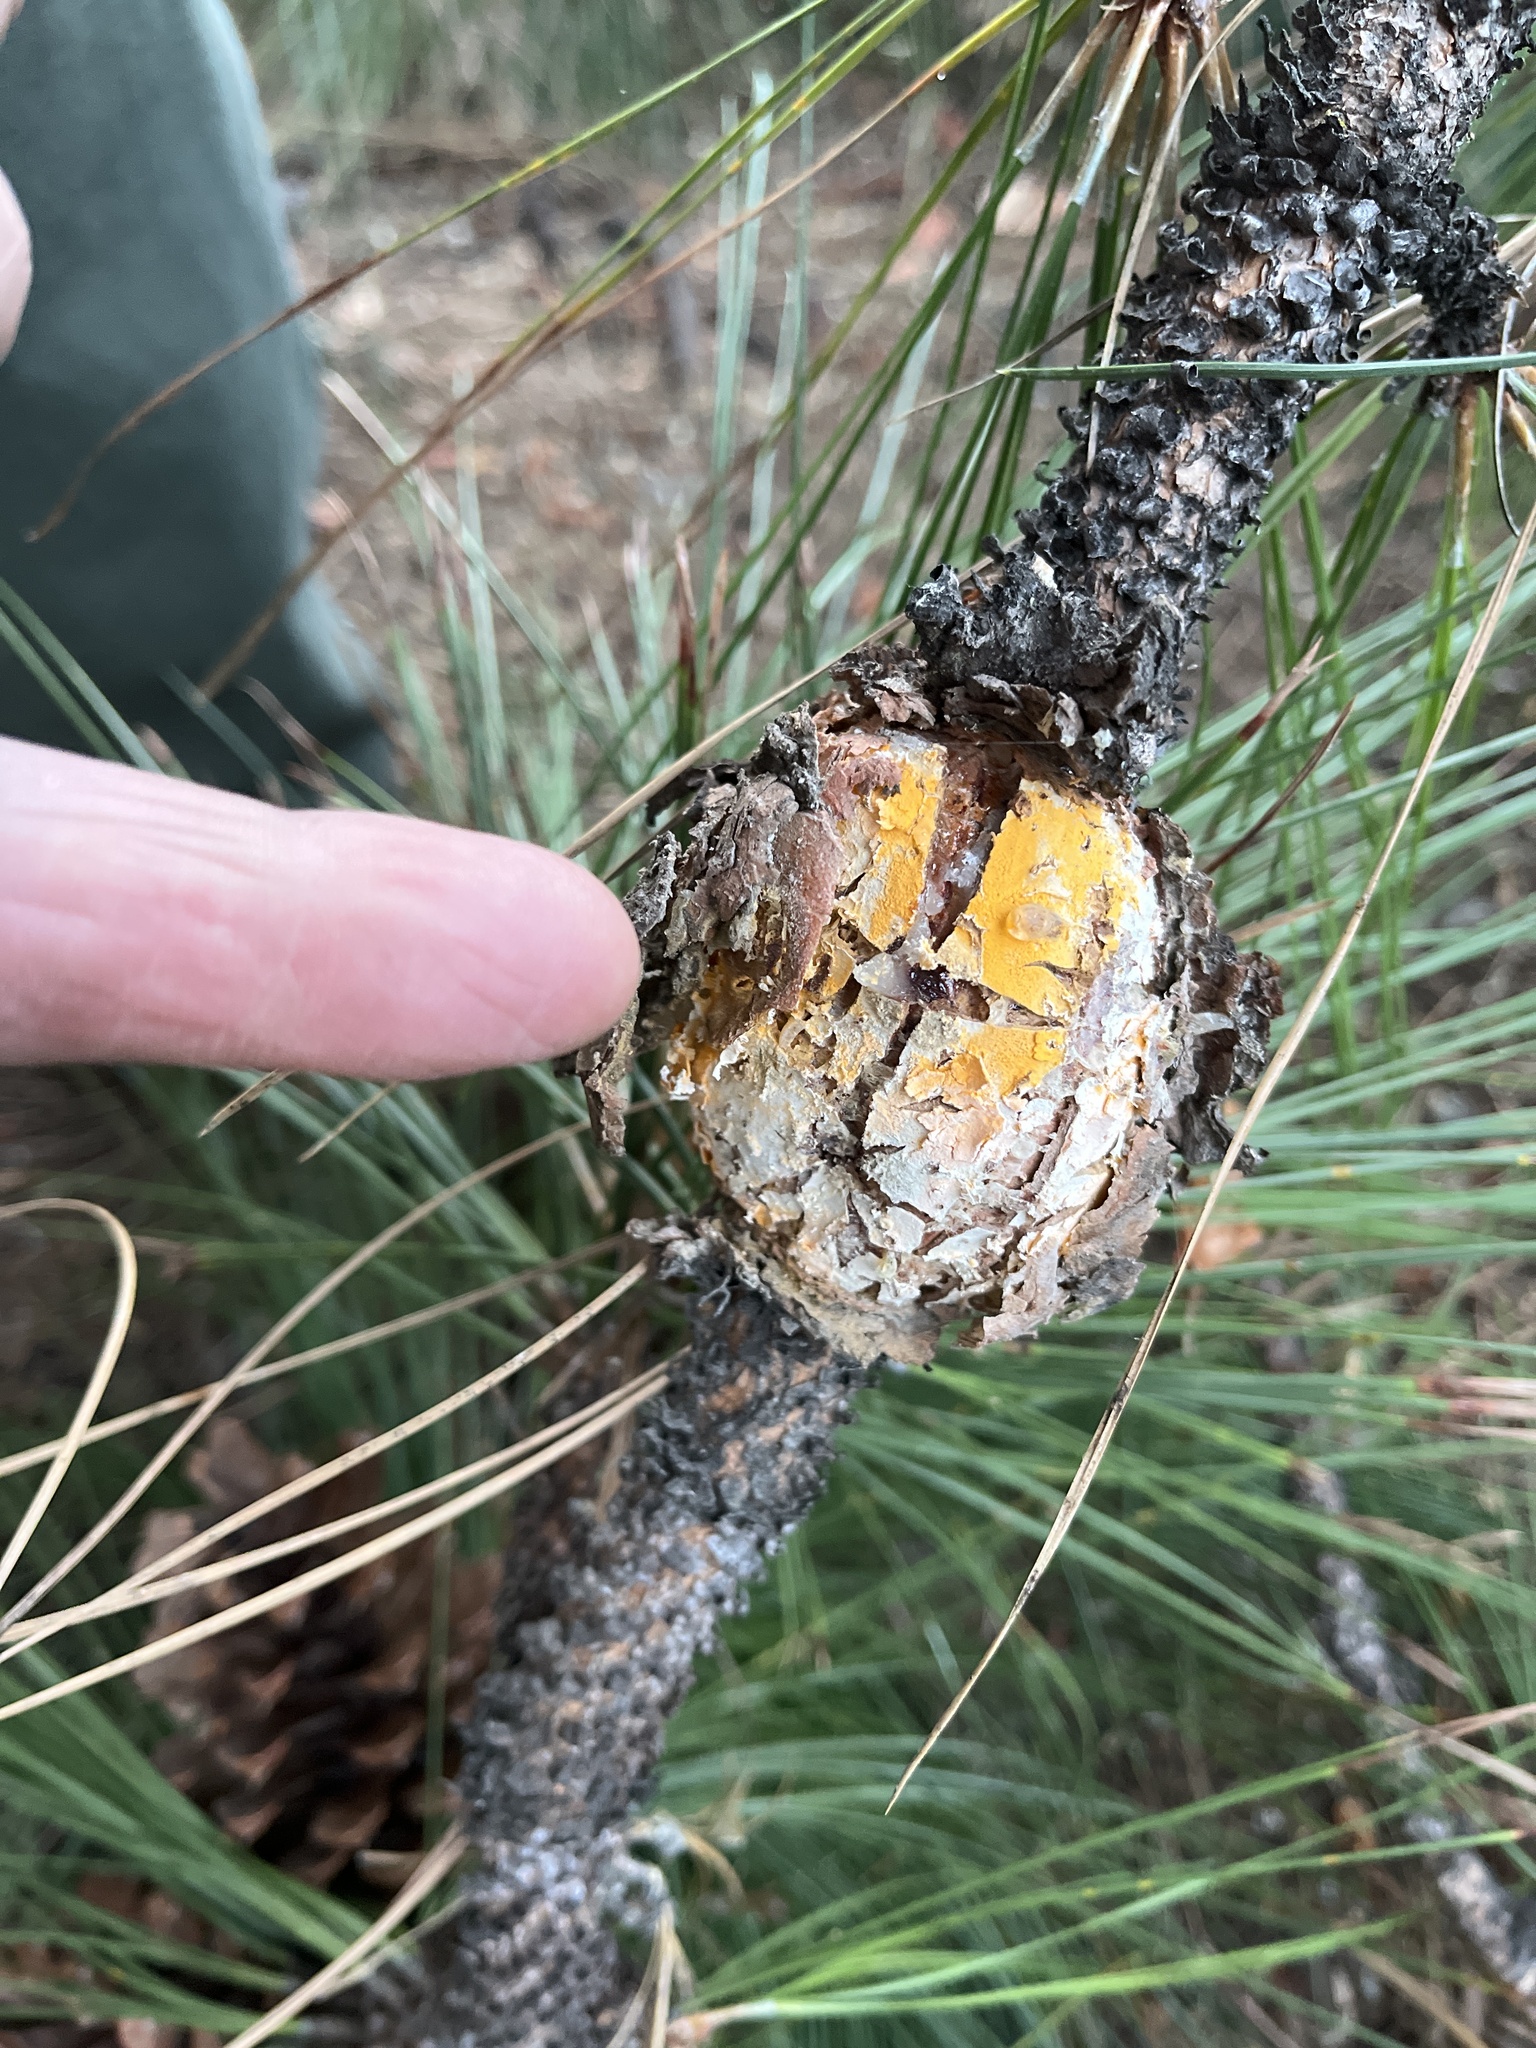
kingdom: Fungi
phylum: Basidiomycota
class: Pucciniomycetes
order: Pucciniales
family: Cronartiaceae
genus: Cronartium
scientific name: Cronartium harknessii
